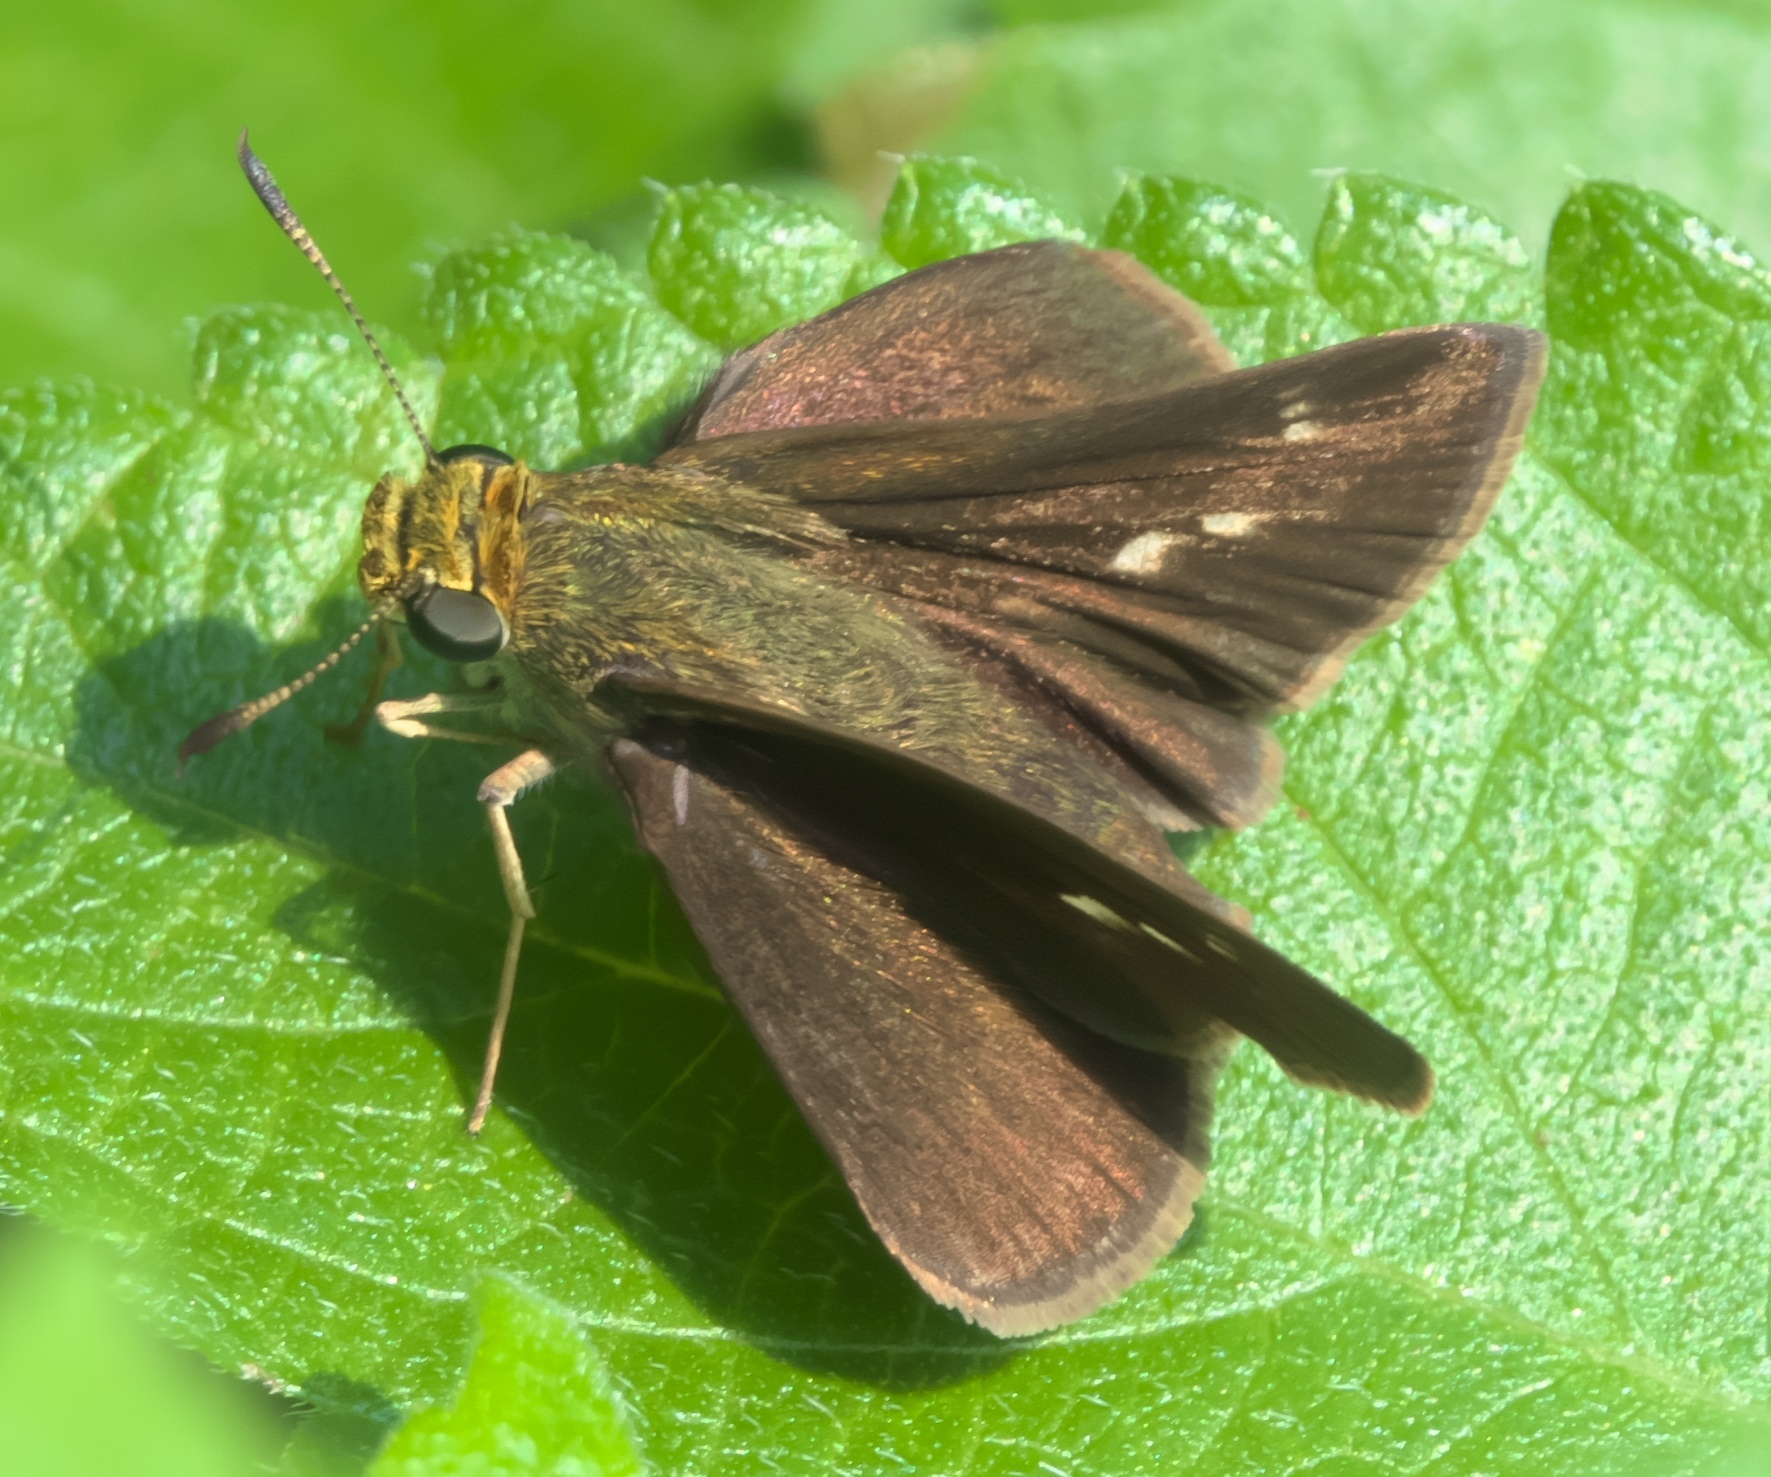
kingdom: Animalia
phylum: Arthropoda
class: Insecta
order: Lepidoptera
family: Hesperiidae
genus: Euphyes
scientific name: Euphyes vestris
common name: Dun skipper
